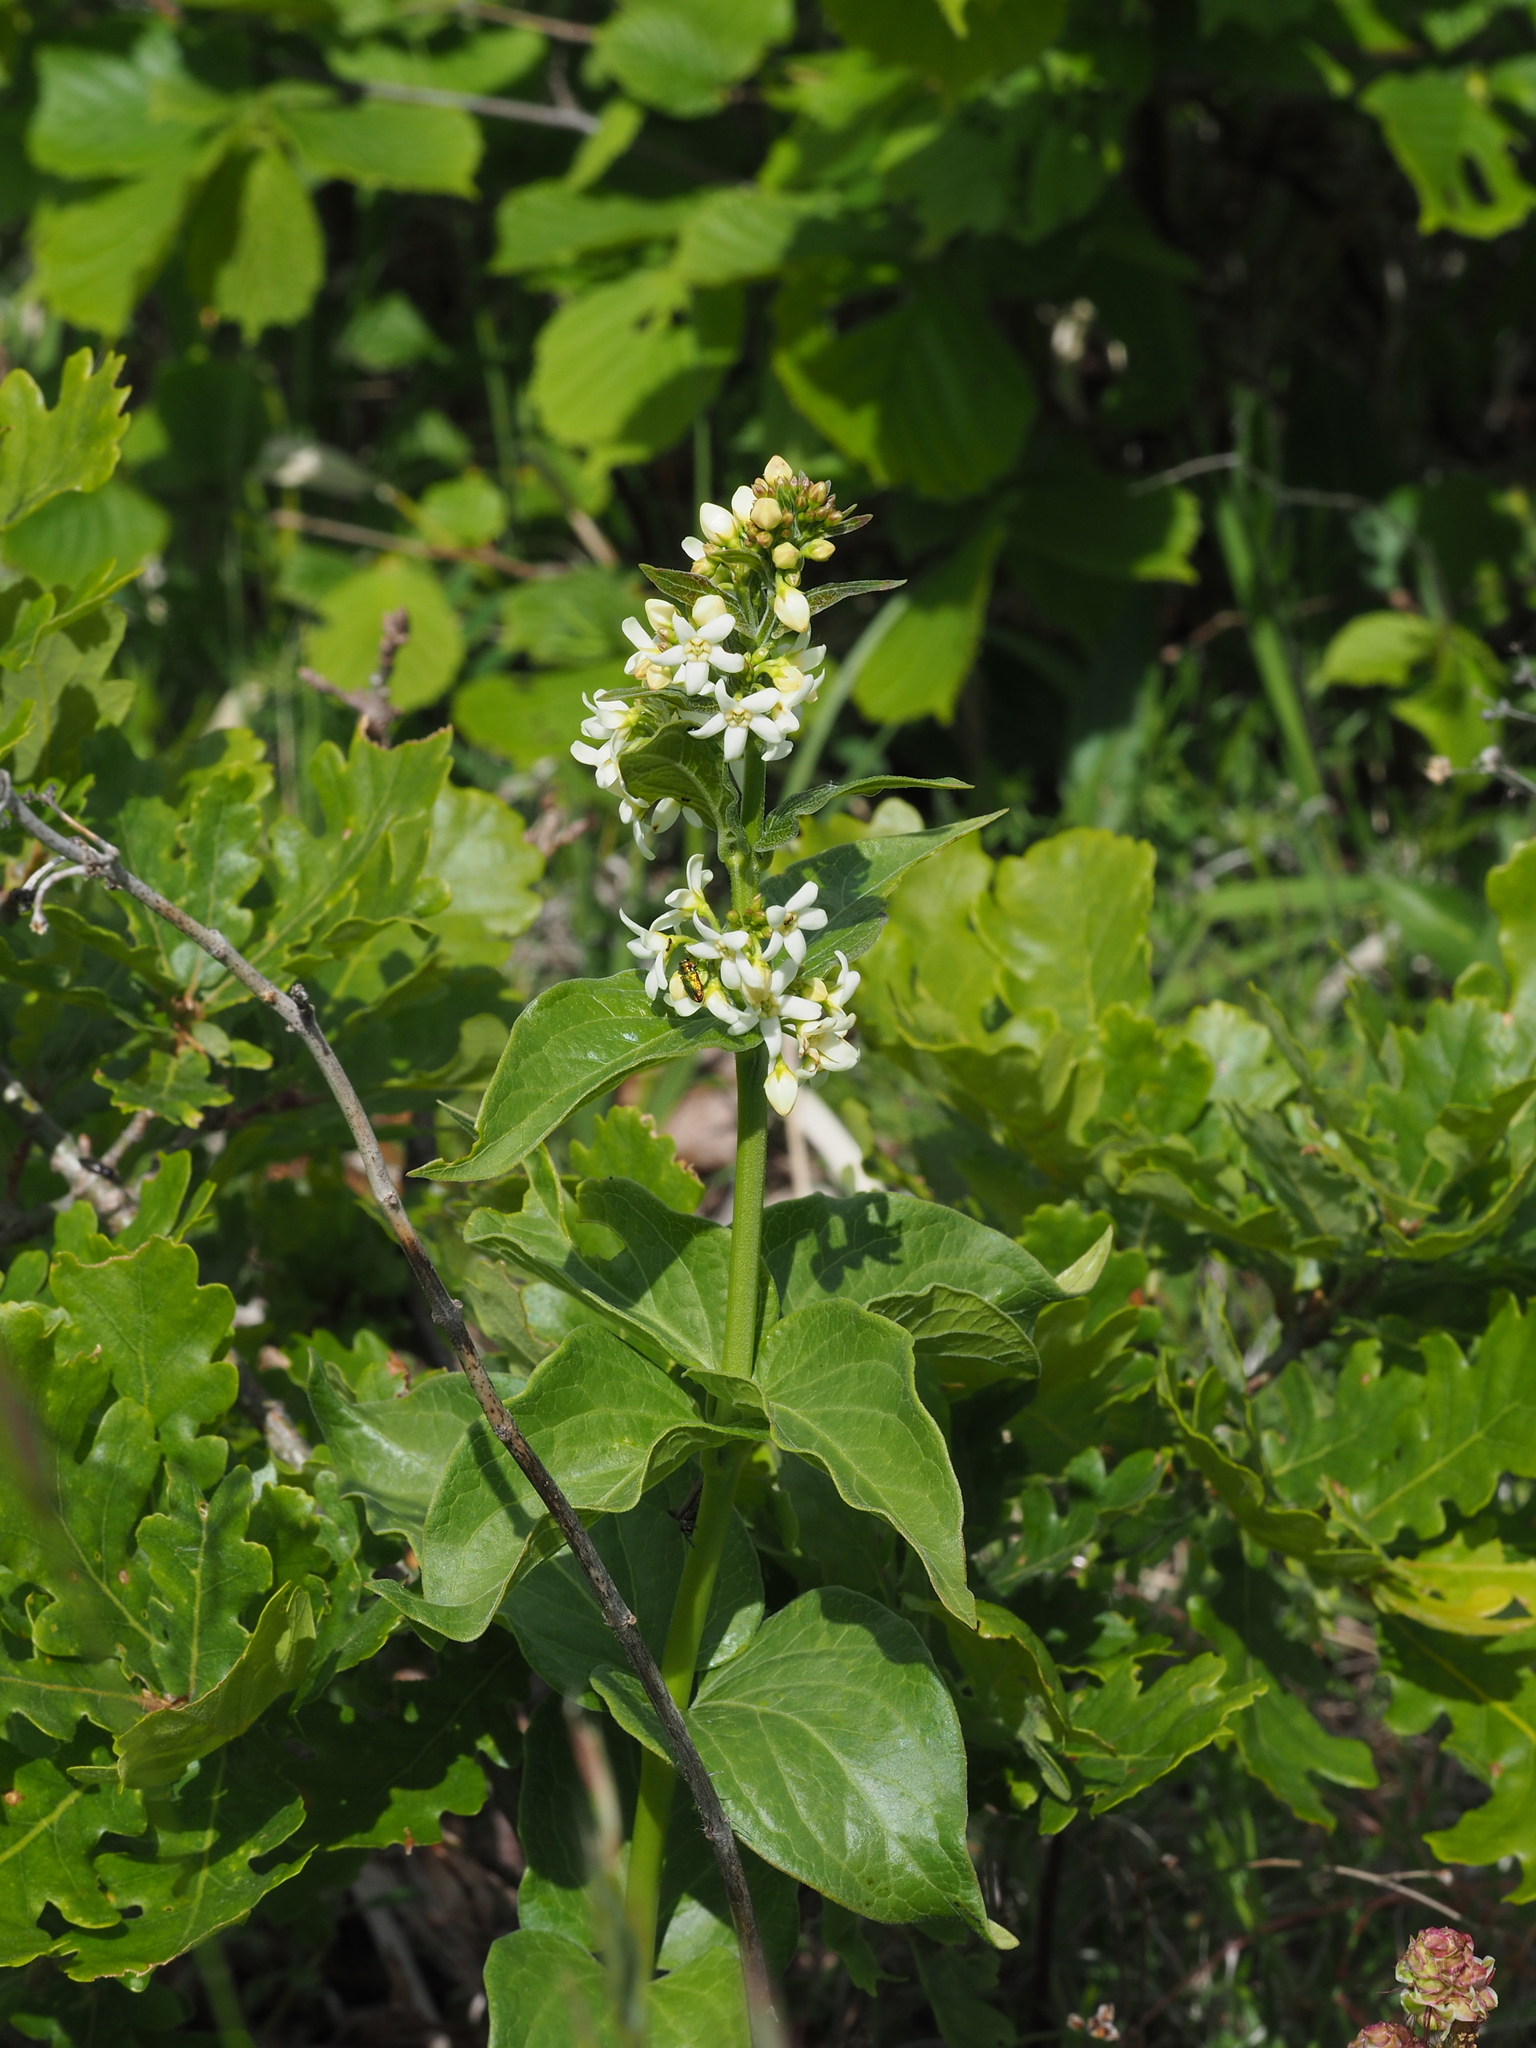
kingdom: Plantae
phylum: Tracheophyta
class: Magnoliopsida
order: Gentianales
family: Apocynaceae
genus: Vincetoxicum
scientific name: Vincetoxicum hirundinaria
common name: White swallowwort
